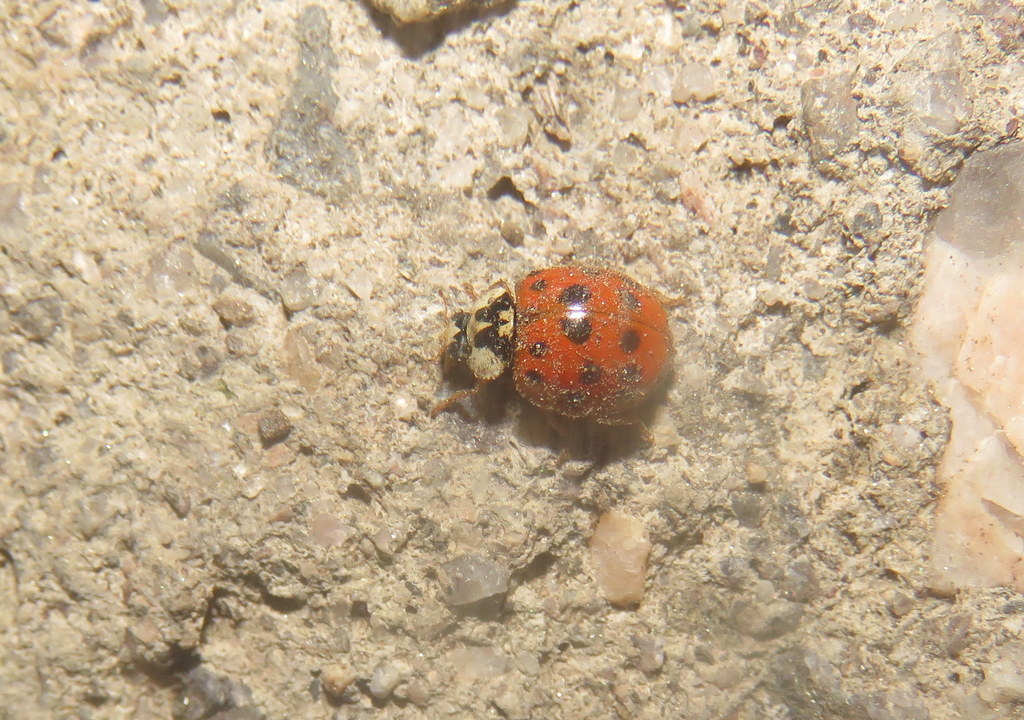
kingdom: Animalia
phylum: Arthropoda
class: Insecta
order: Coleoptera
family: Coccinellidae
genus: Harmonia
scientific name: Harmonia axyridis
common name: Harlequin ladybird
